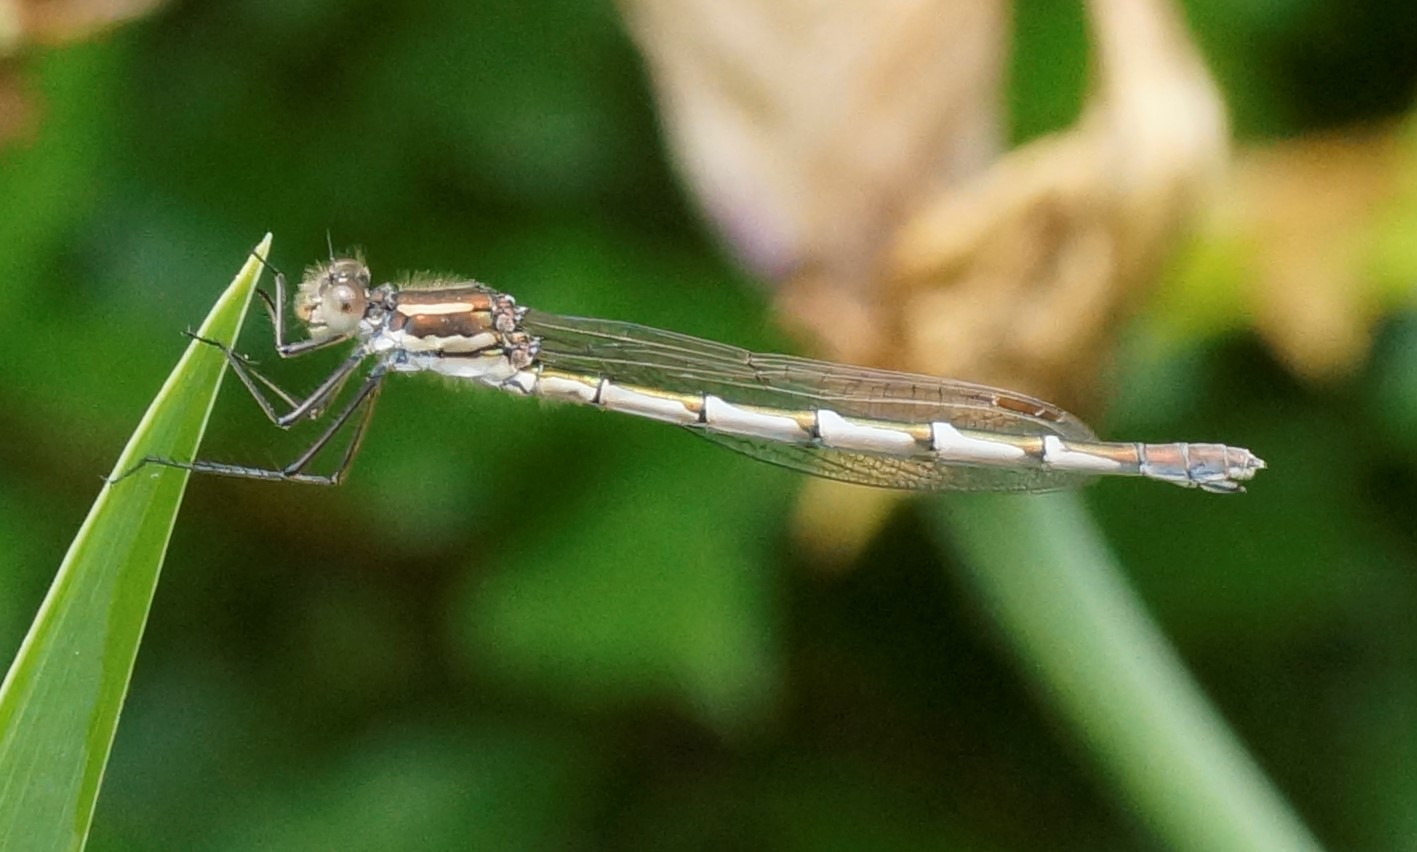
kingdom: Animalia
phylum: Arthropoda
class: Insecta
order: Odonata
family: Lestidae
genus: Austrolestes
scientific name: Austrolestes annulosus
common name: Blue ringtail
